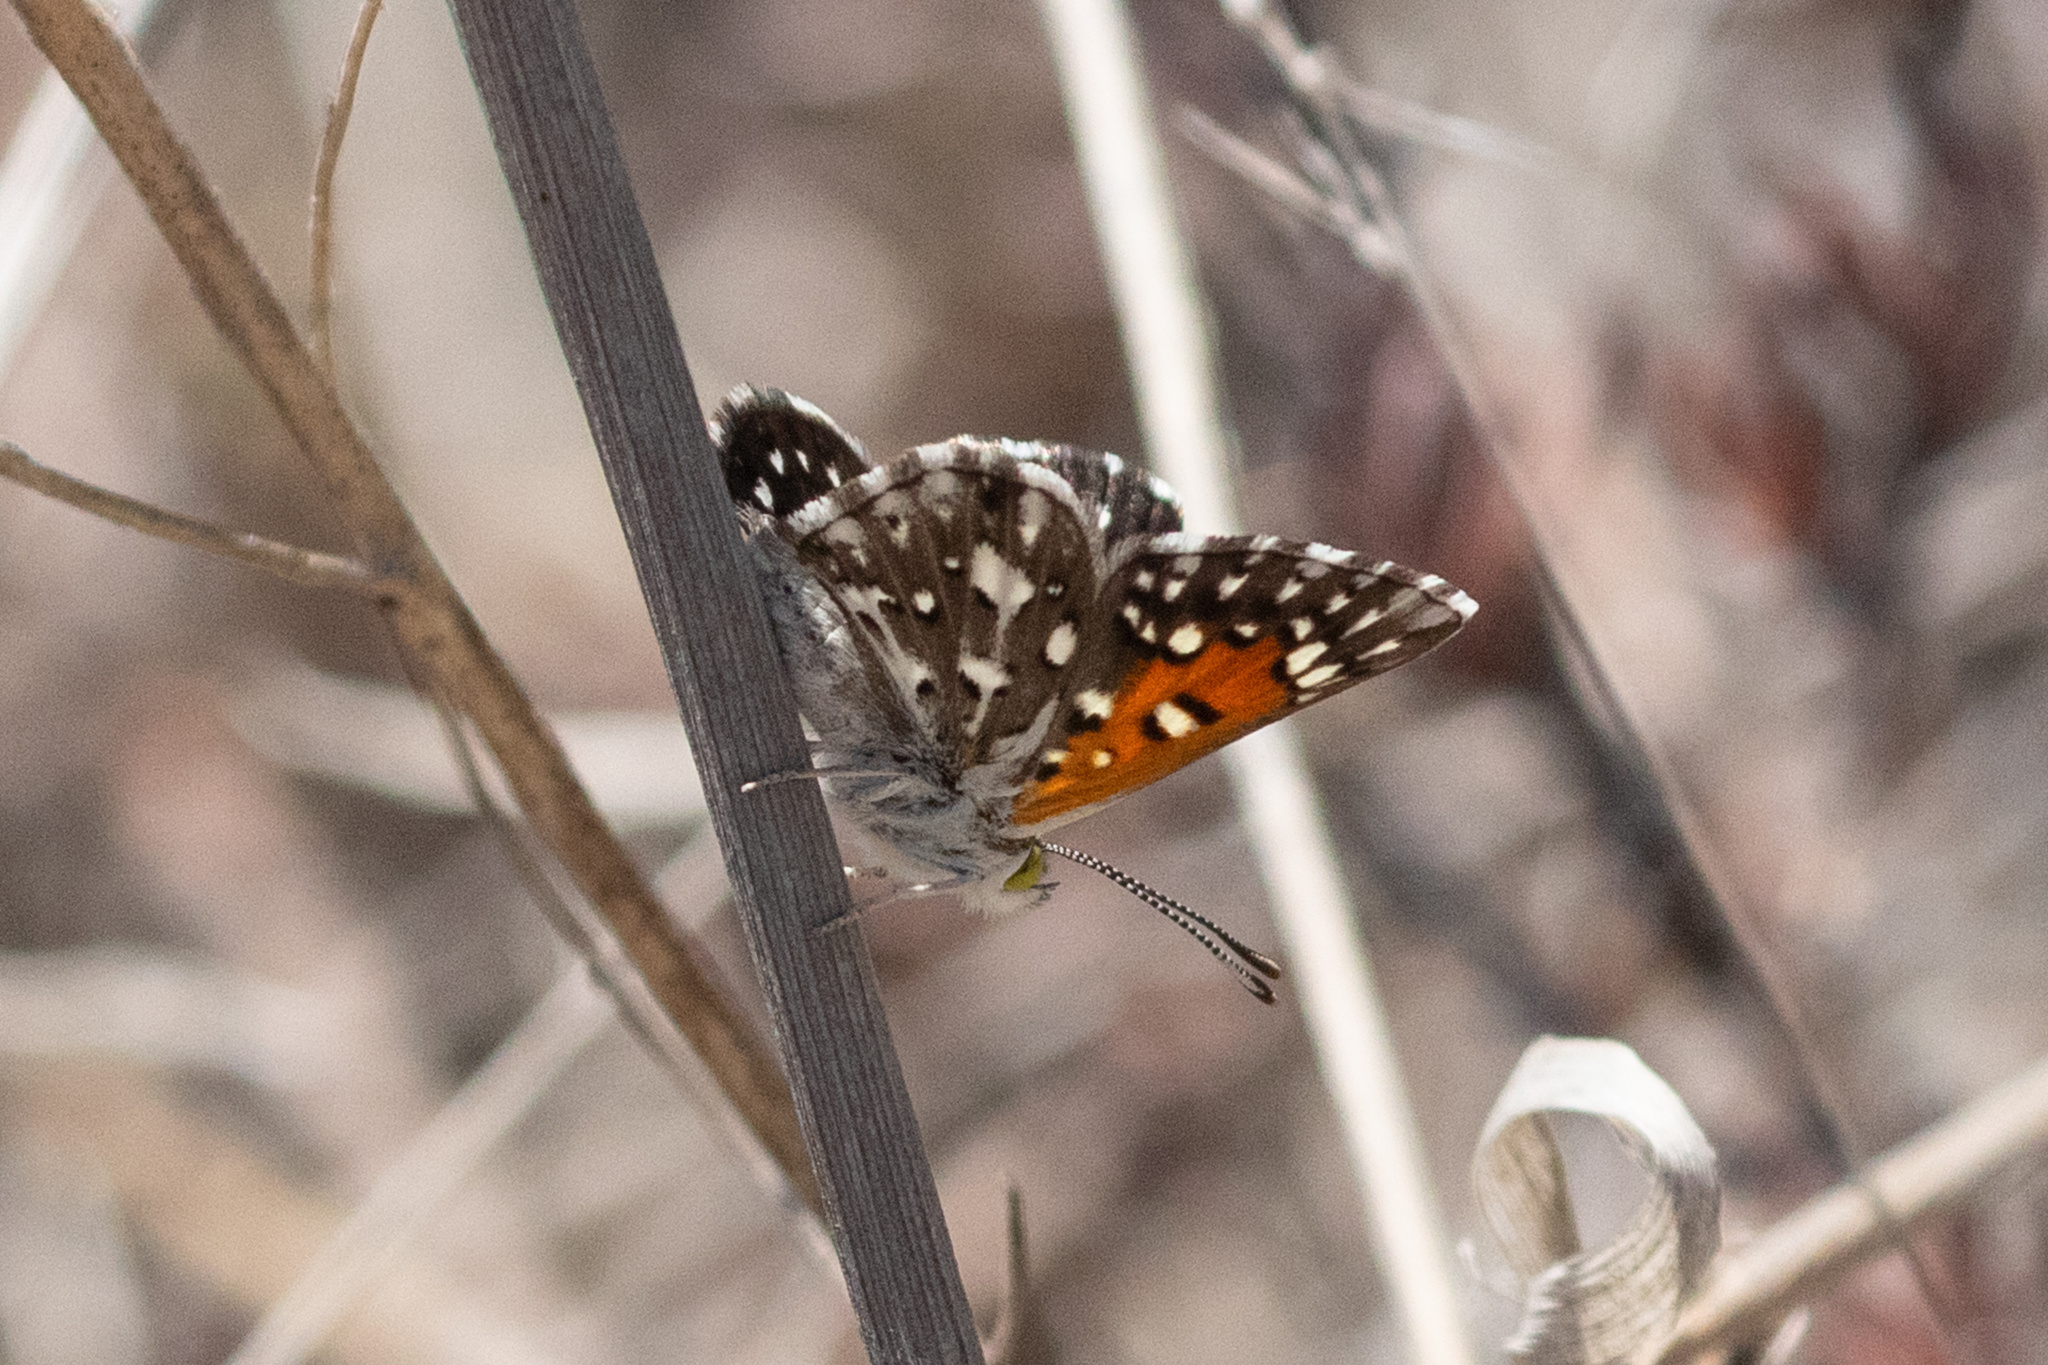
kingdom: Animalia
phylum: Arthropoda
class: Insecta
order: Lepidoptera
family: Riodinidae
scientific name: Riodinidae
